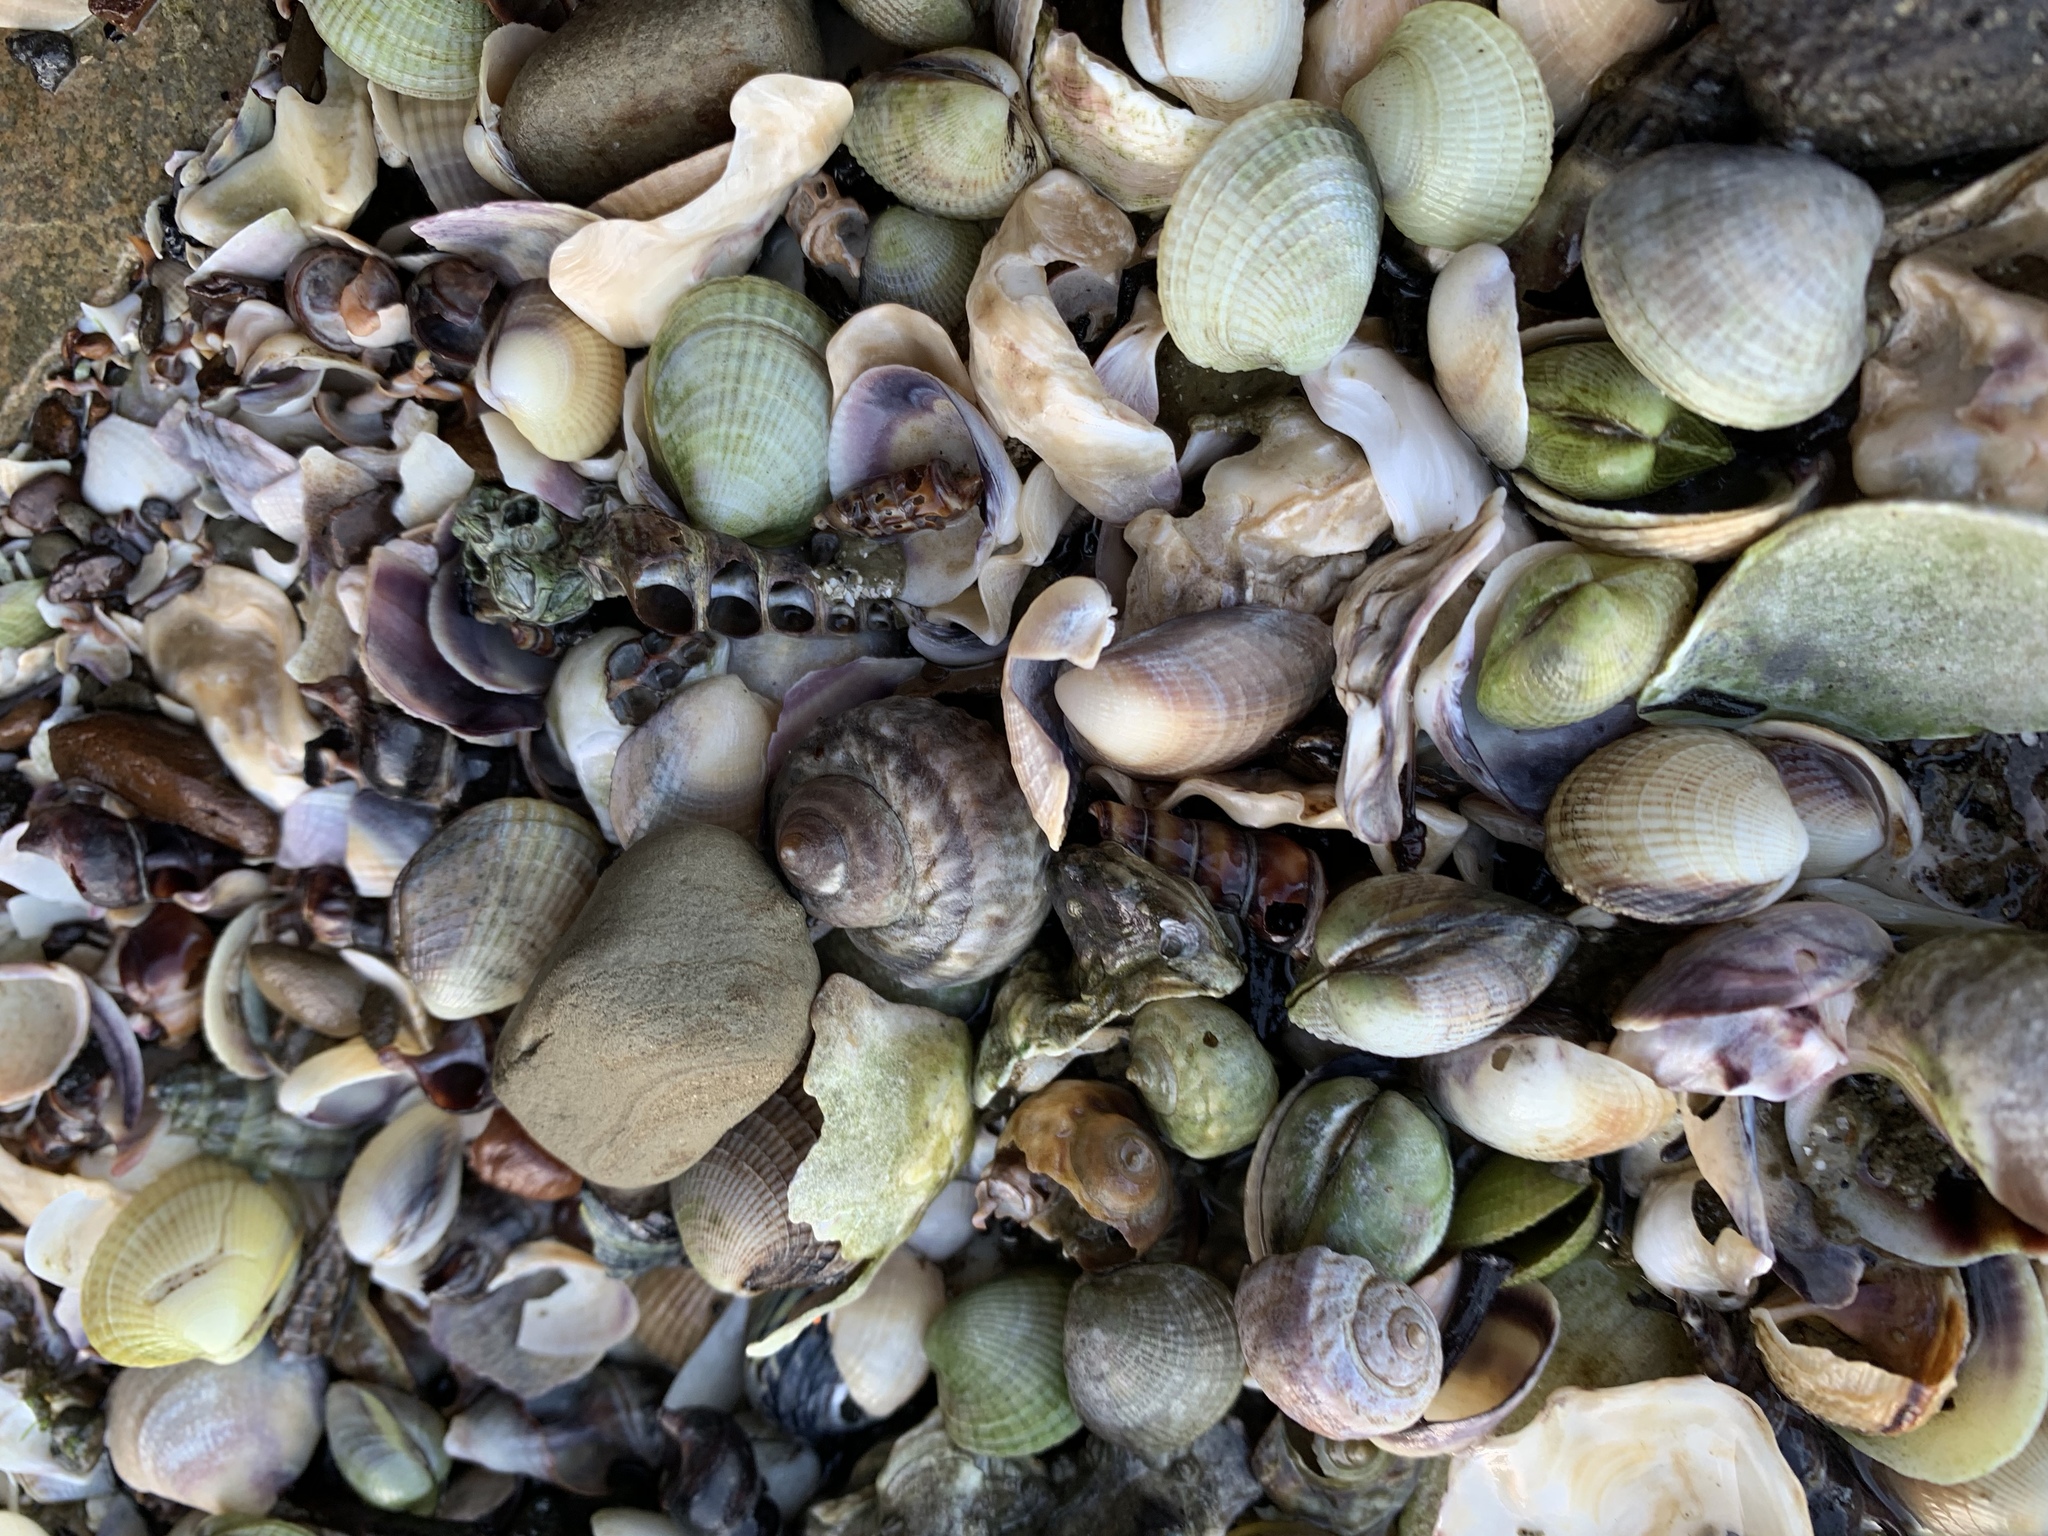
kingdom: Animalia
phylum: Mollusca
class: Gastropoda
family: Amphibolidae
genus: Amphibola
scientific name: Amphibola crenata
